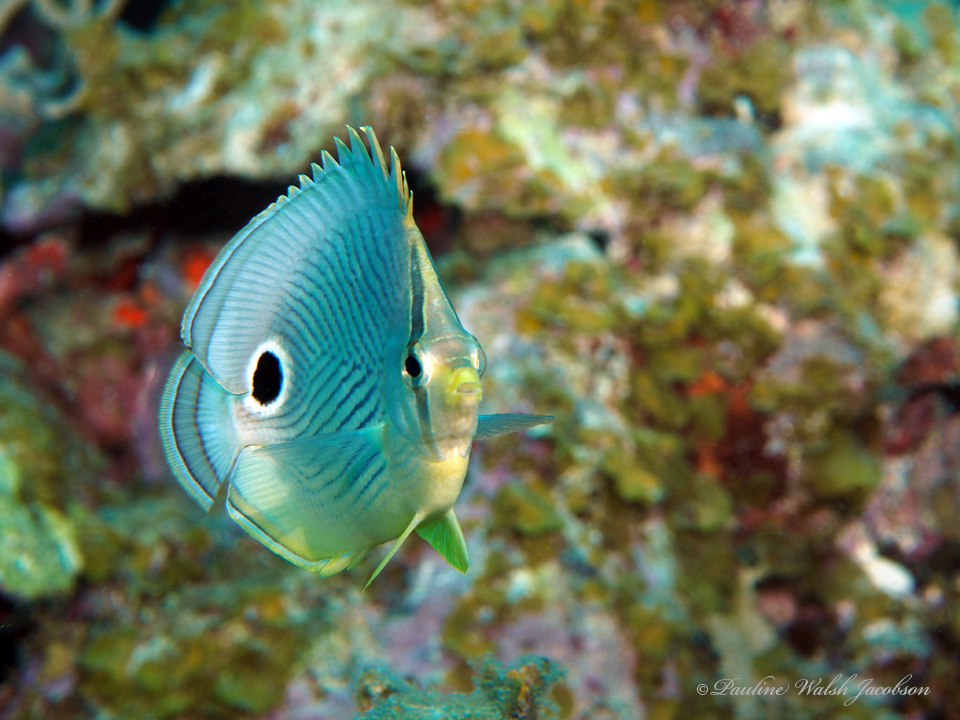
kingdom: Animalia
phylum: Chordata
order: Perciformes
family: Chaetodontidae
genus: Chaetodon
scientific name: Chaetodon capistratus
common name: Kete
